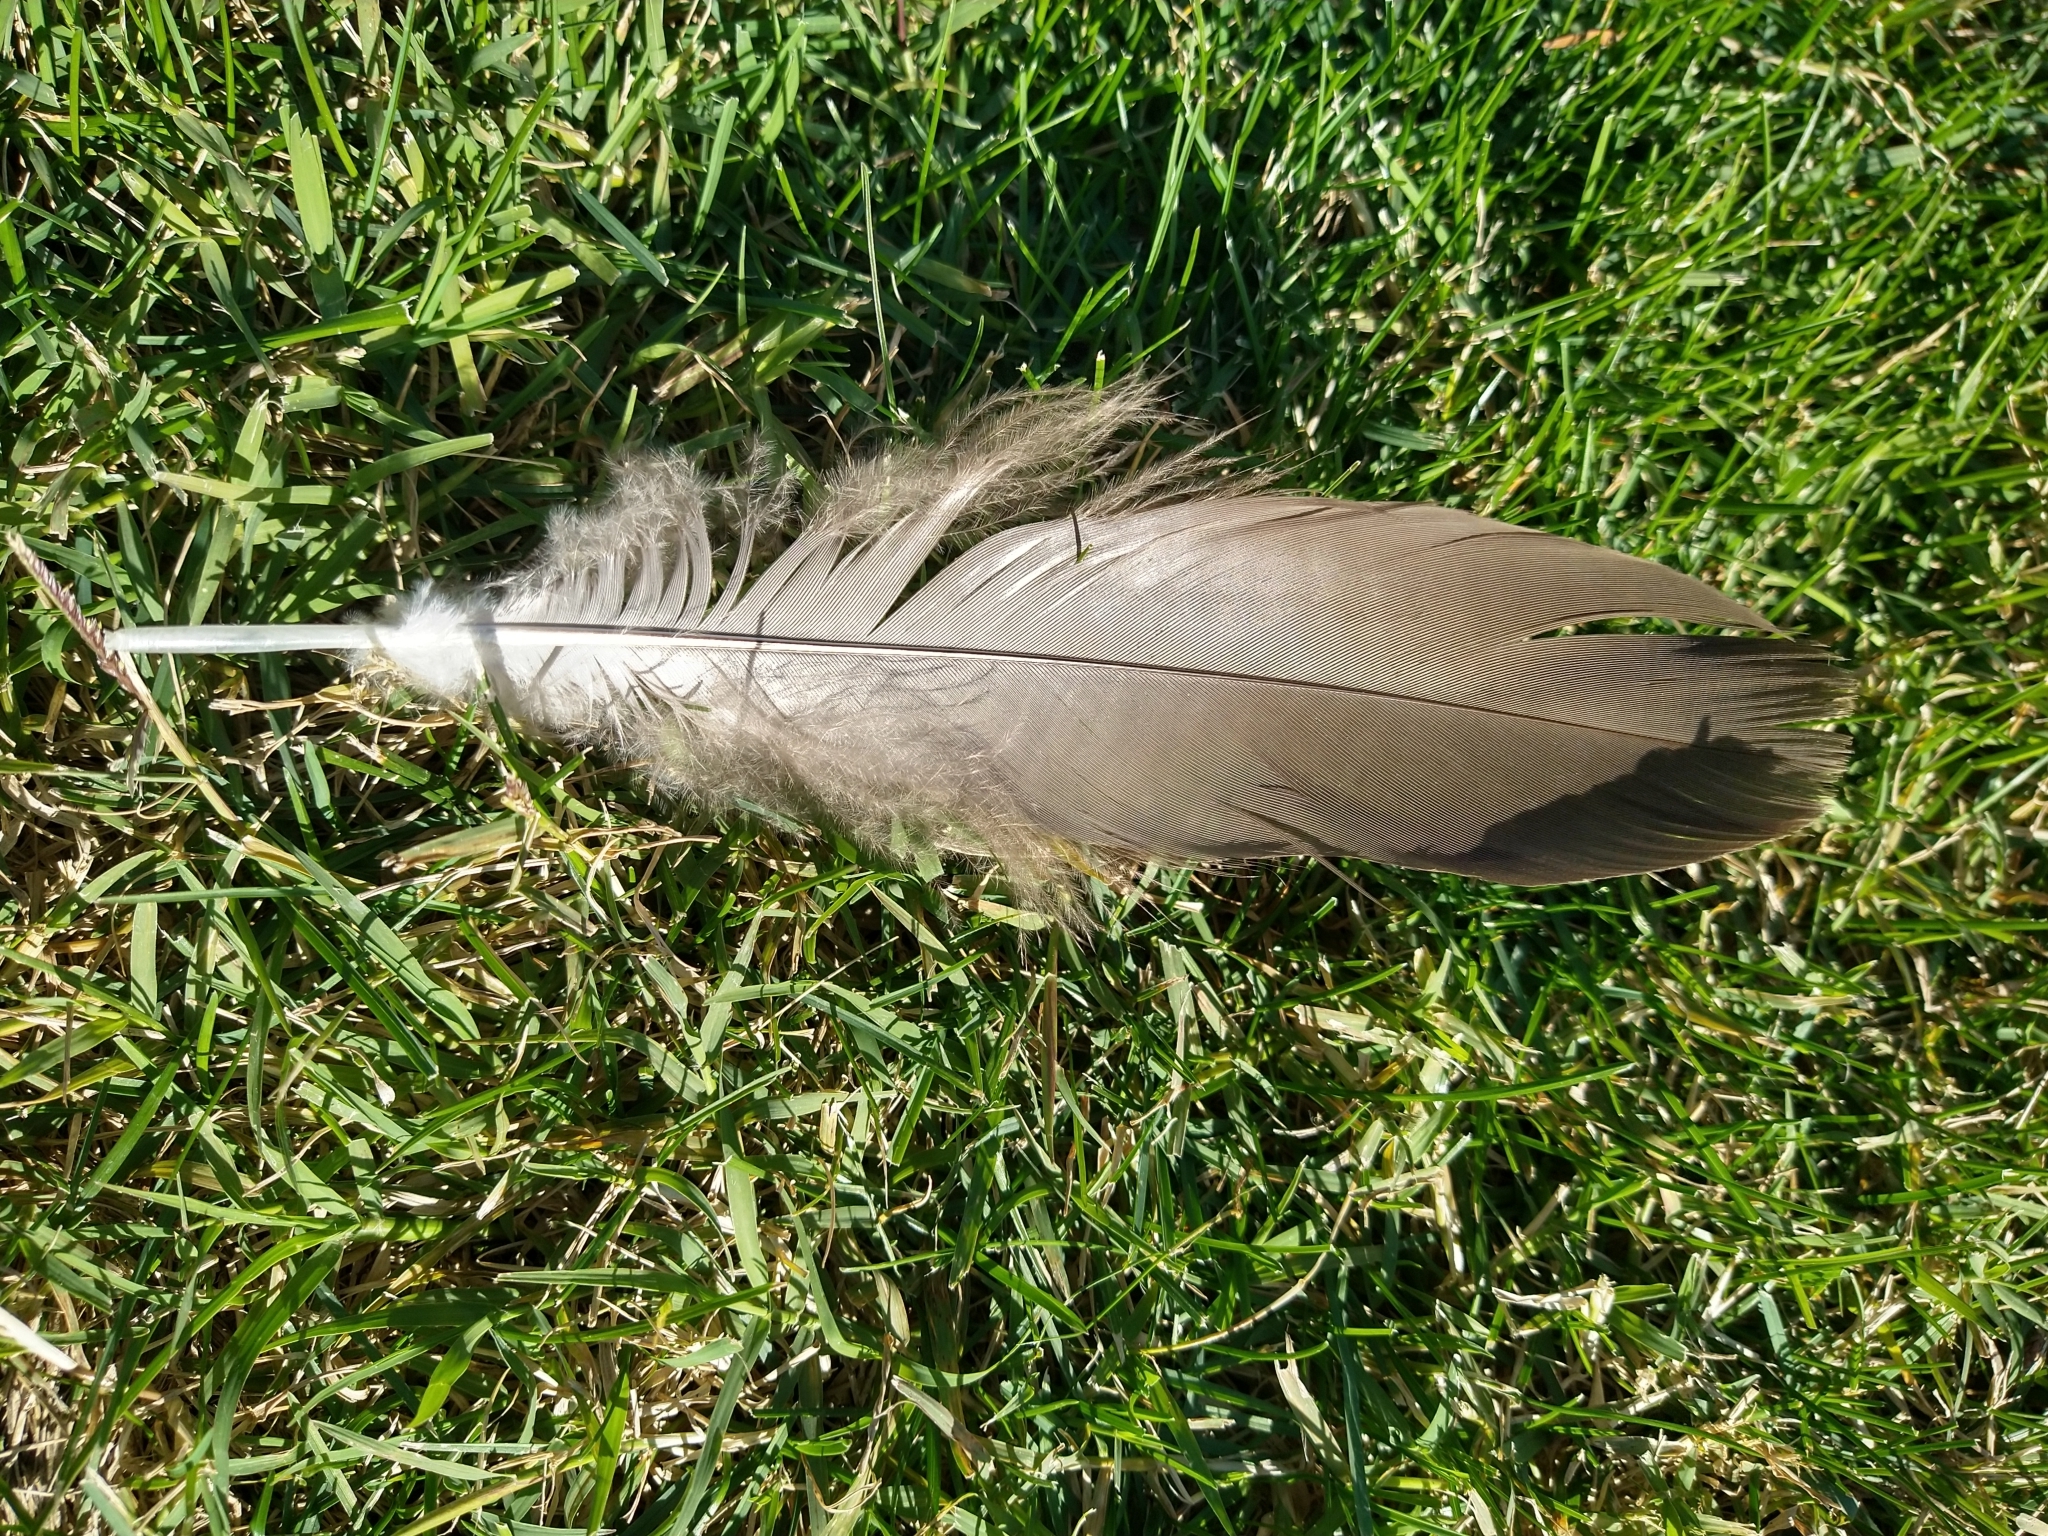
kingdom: Animalia
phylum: Chordata
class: Aves
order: Anseriformes
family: Anatidae
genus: Branta
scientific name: Branta canadensis
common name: Canada goose
